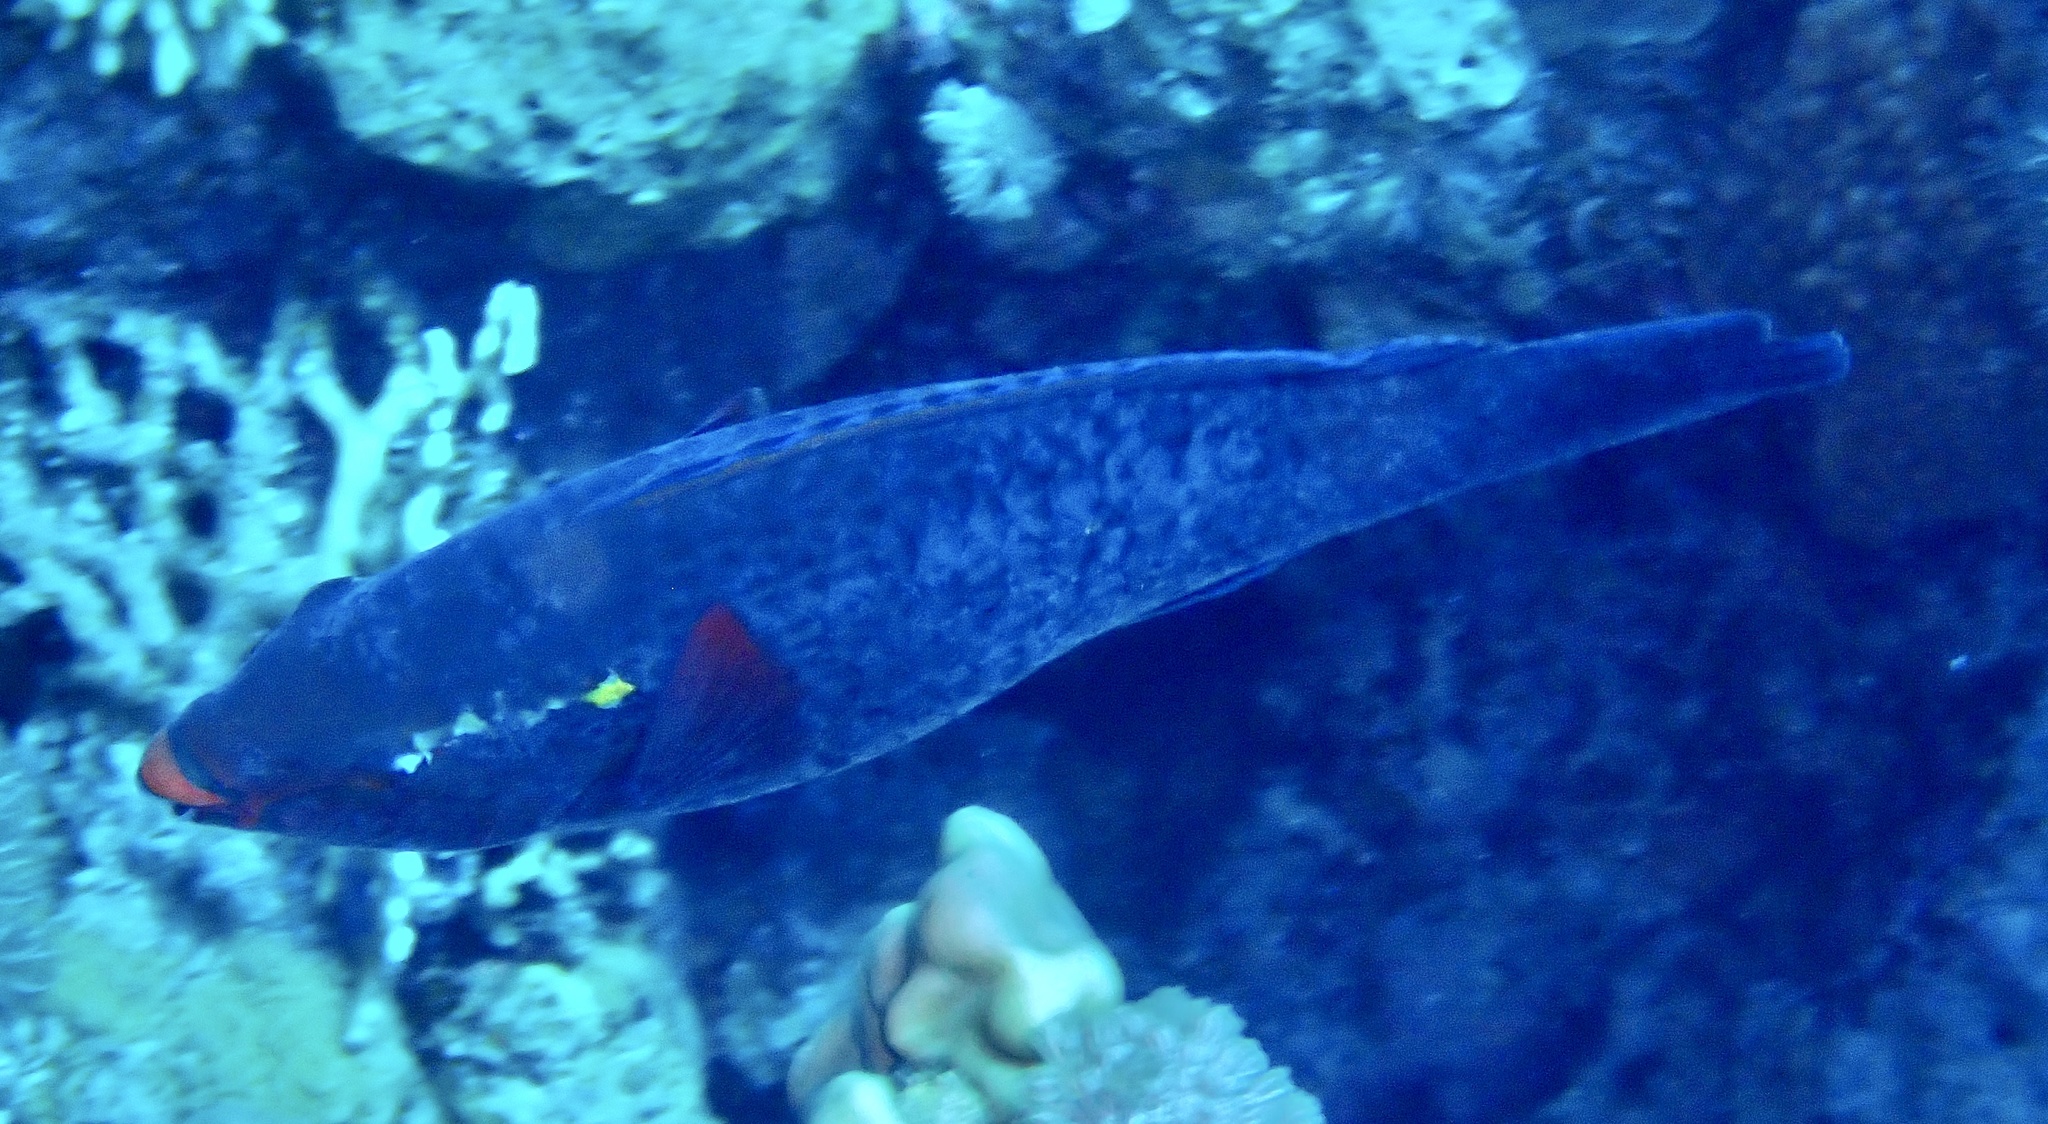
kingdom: Animalia
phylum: Chordata
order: Perciformes
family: Scaridae
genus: Scarus
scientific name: Scarus niger
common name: Dusky parrotfish
